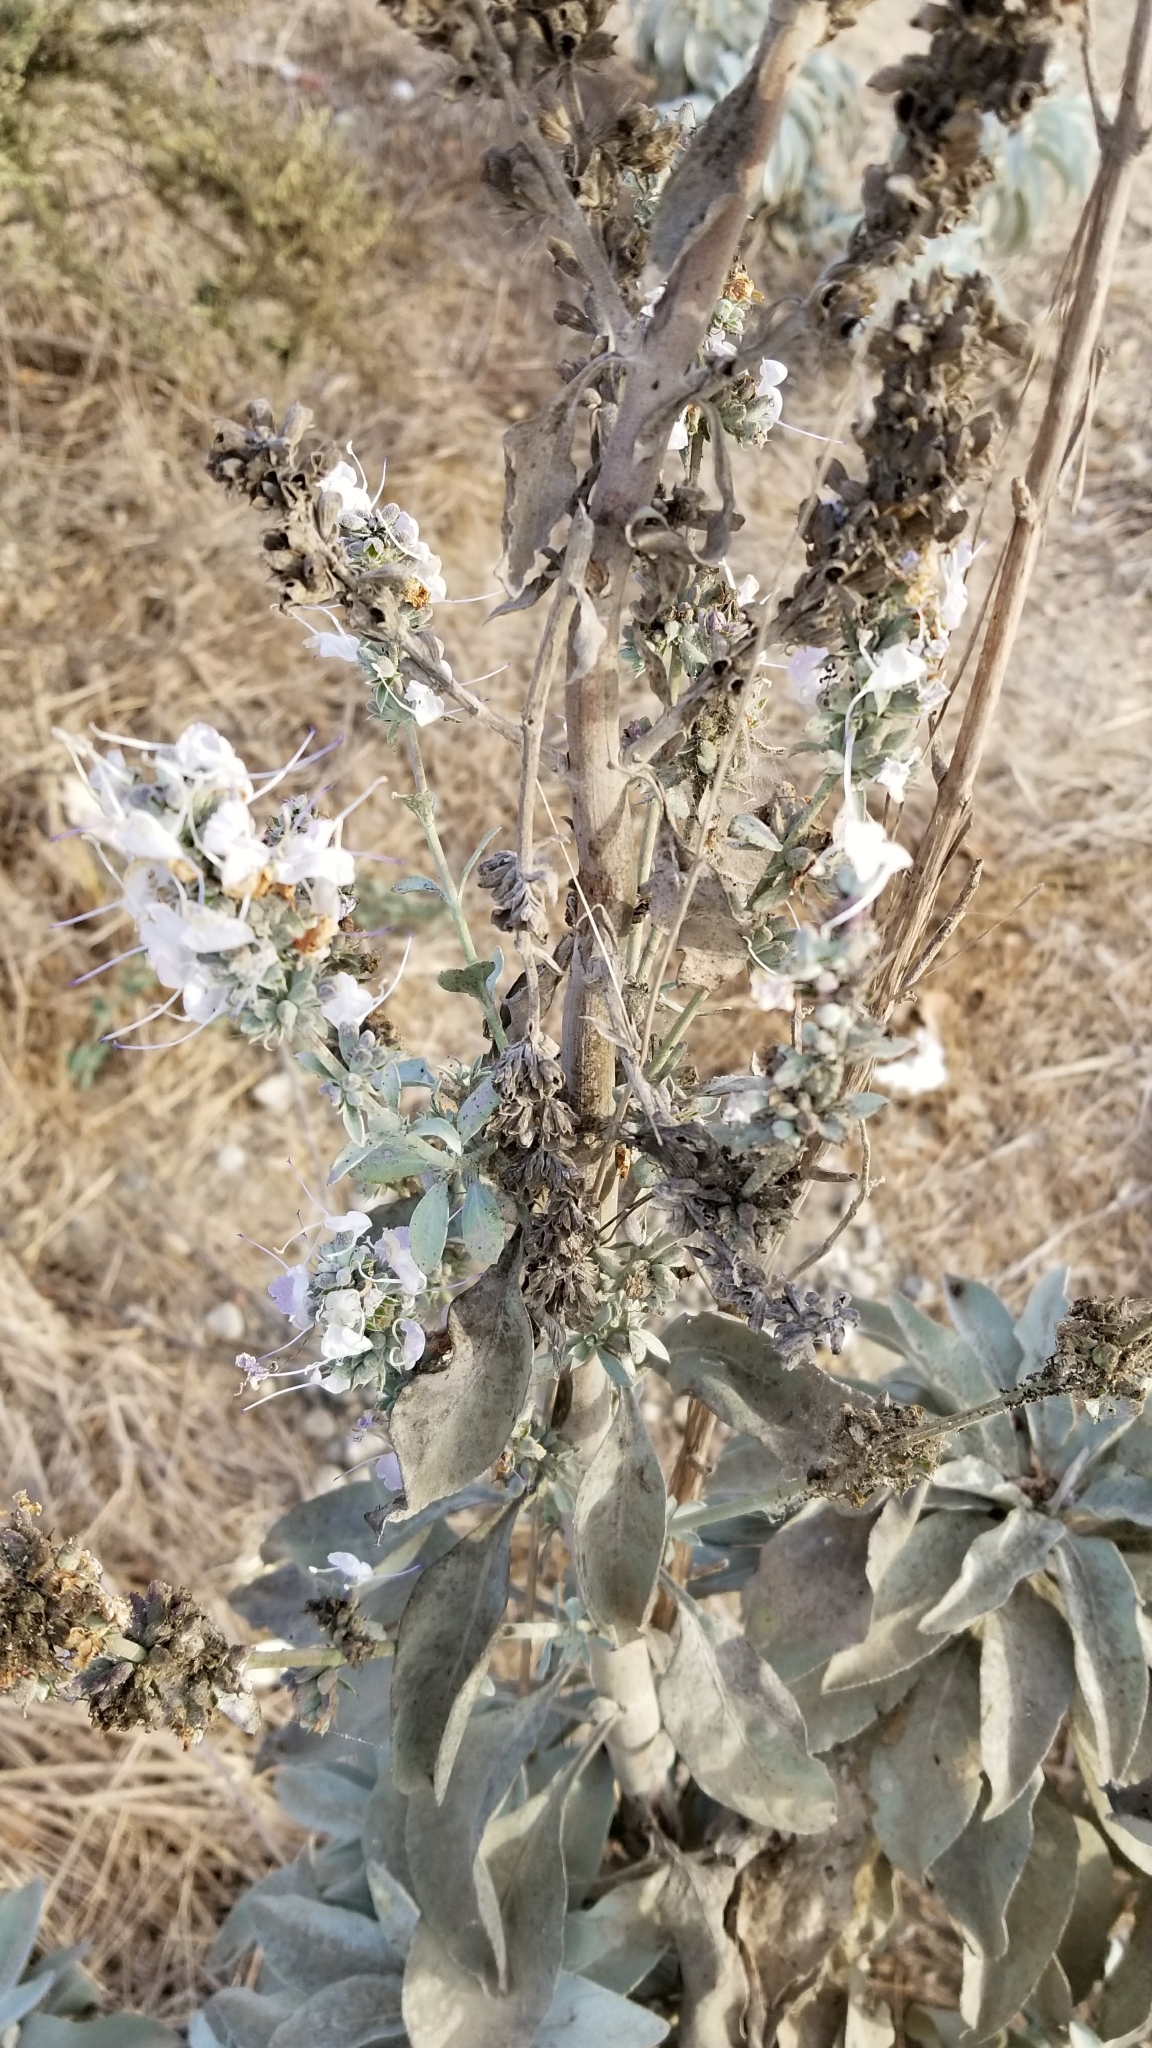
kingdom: Plantae
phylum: Tracheophyta
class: Magnoliopsida
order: Lamiales
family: Lamiaceae
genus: Salvia
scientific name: Salvia apiana
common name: White sage
